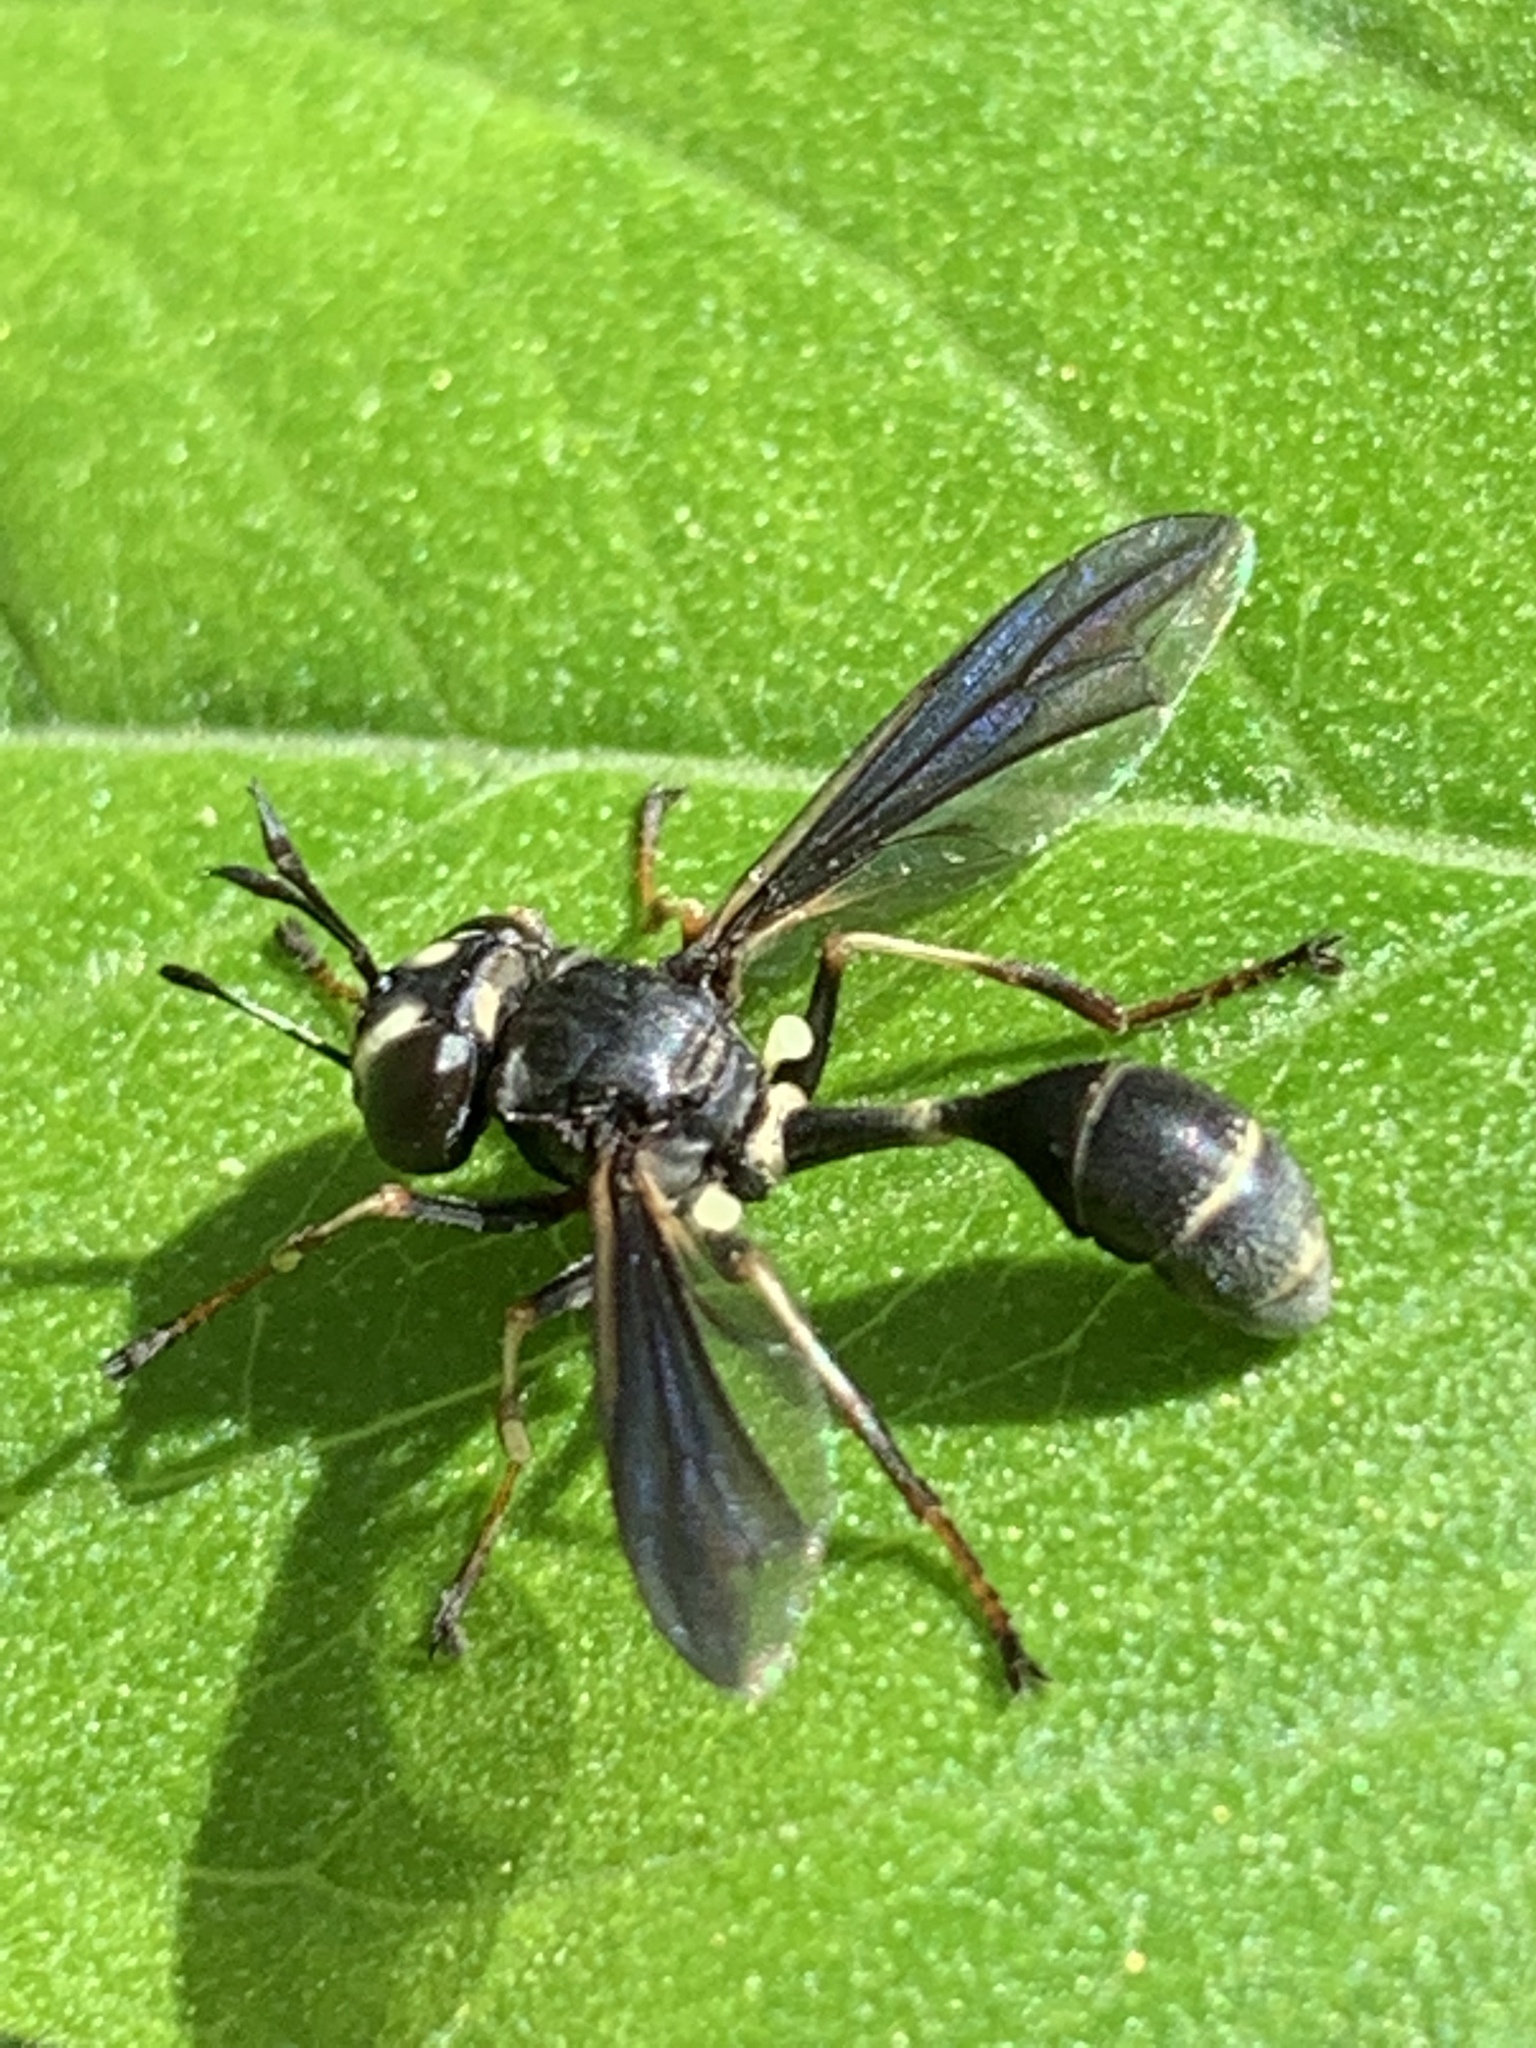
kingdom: Animalia
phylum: Arthropoda
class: Insecta
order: Diptera
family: Conopidae
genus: Physocephala
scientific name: Physocephala tibialis
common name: Common eastern physocephala
